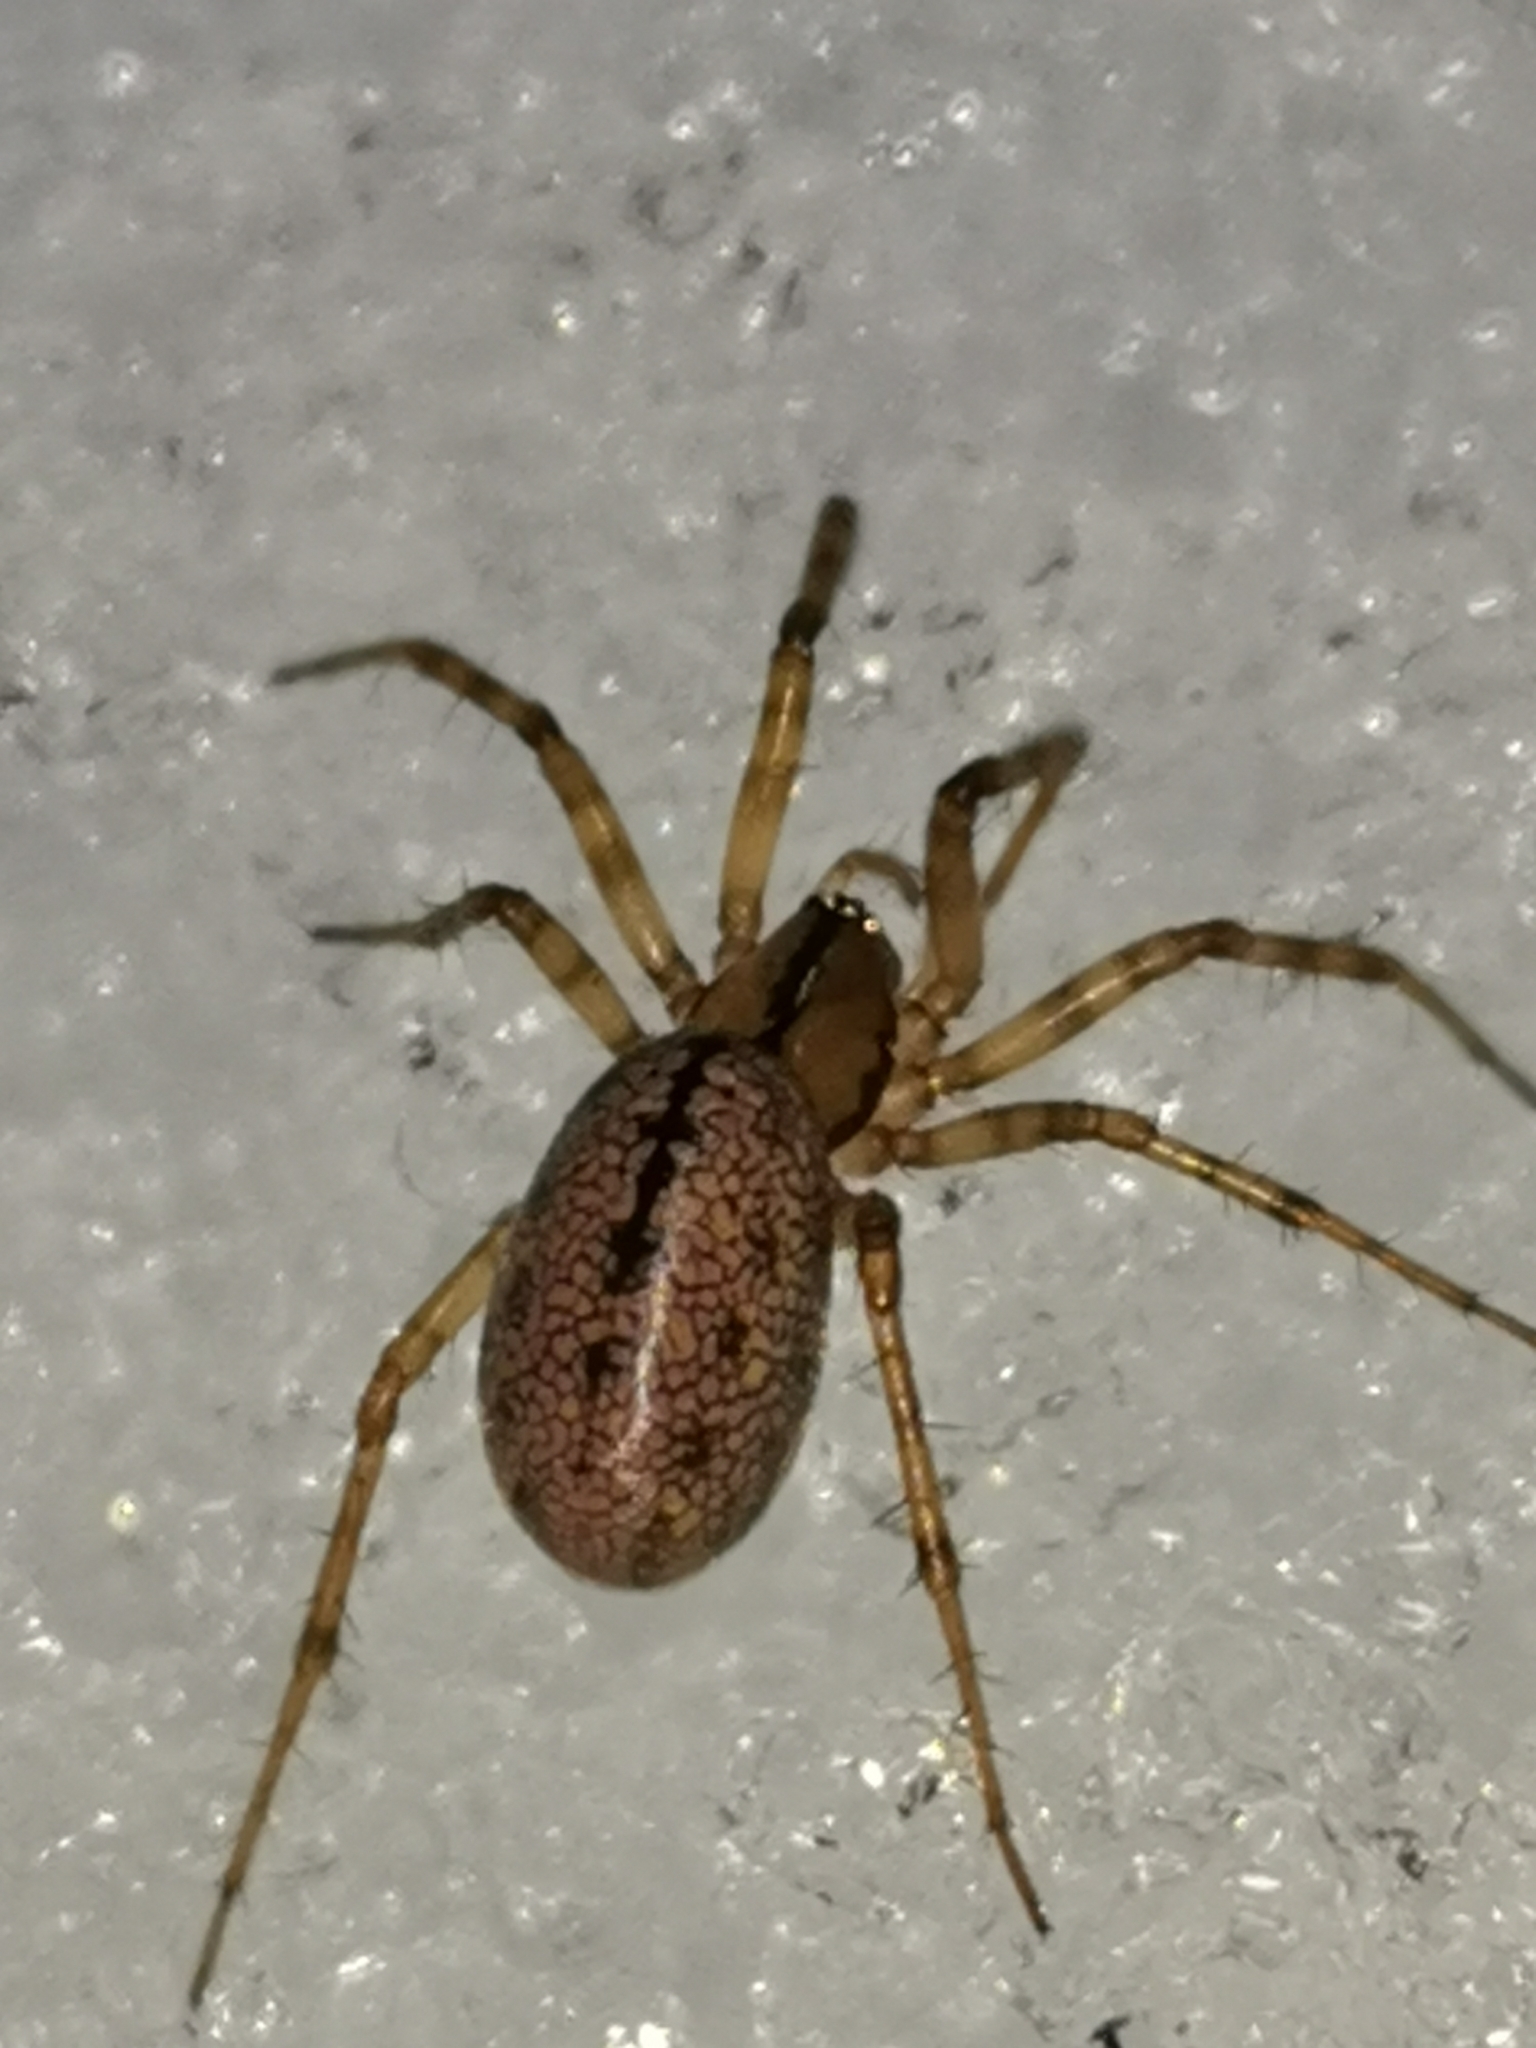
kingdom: Animalia
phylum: Arthropoda
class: Arachnida
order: Araneae
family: Linyphiidae
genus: Stemonyphantes
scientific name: Stemonyphantes lineatus
